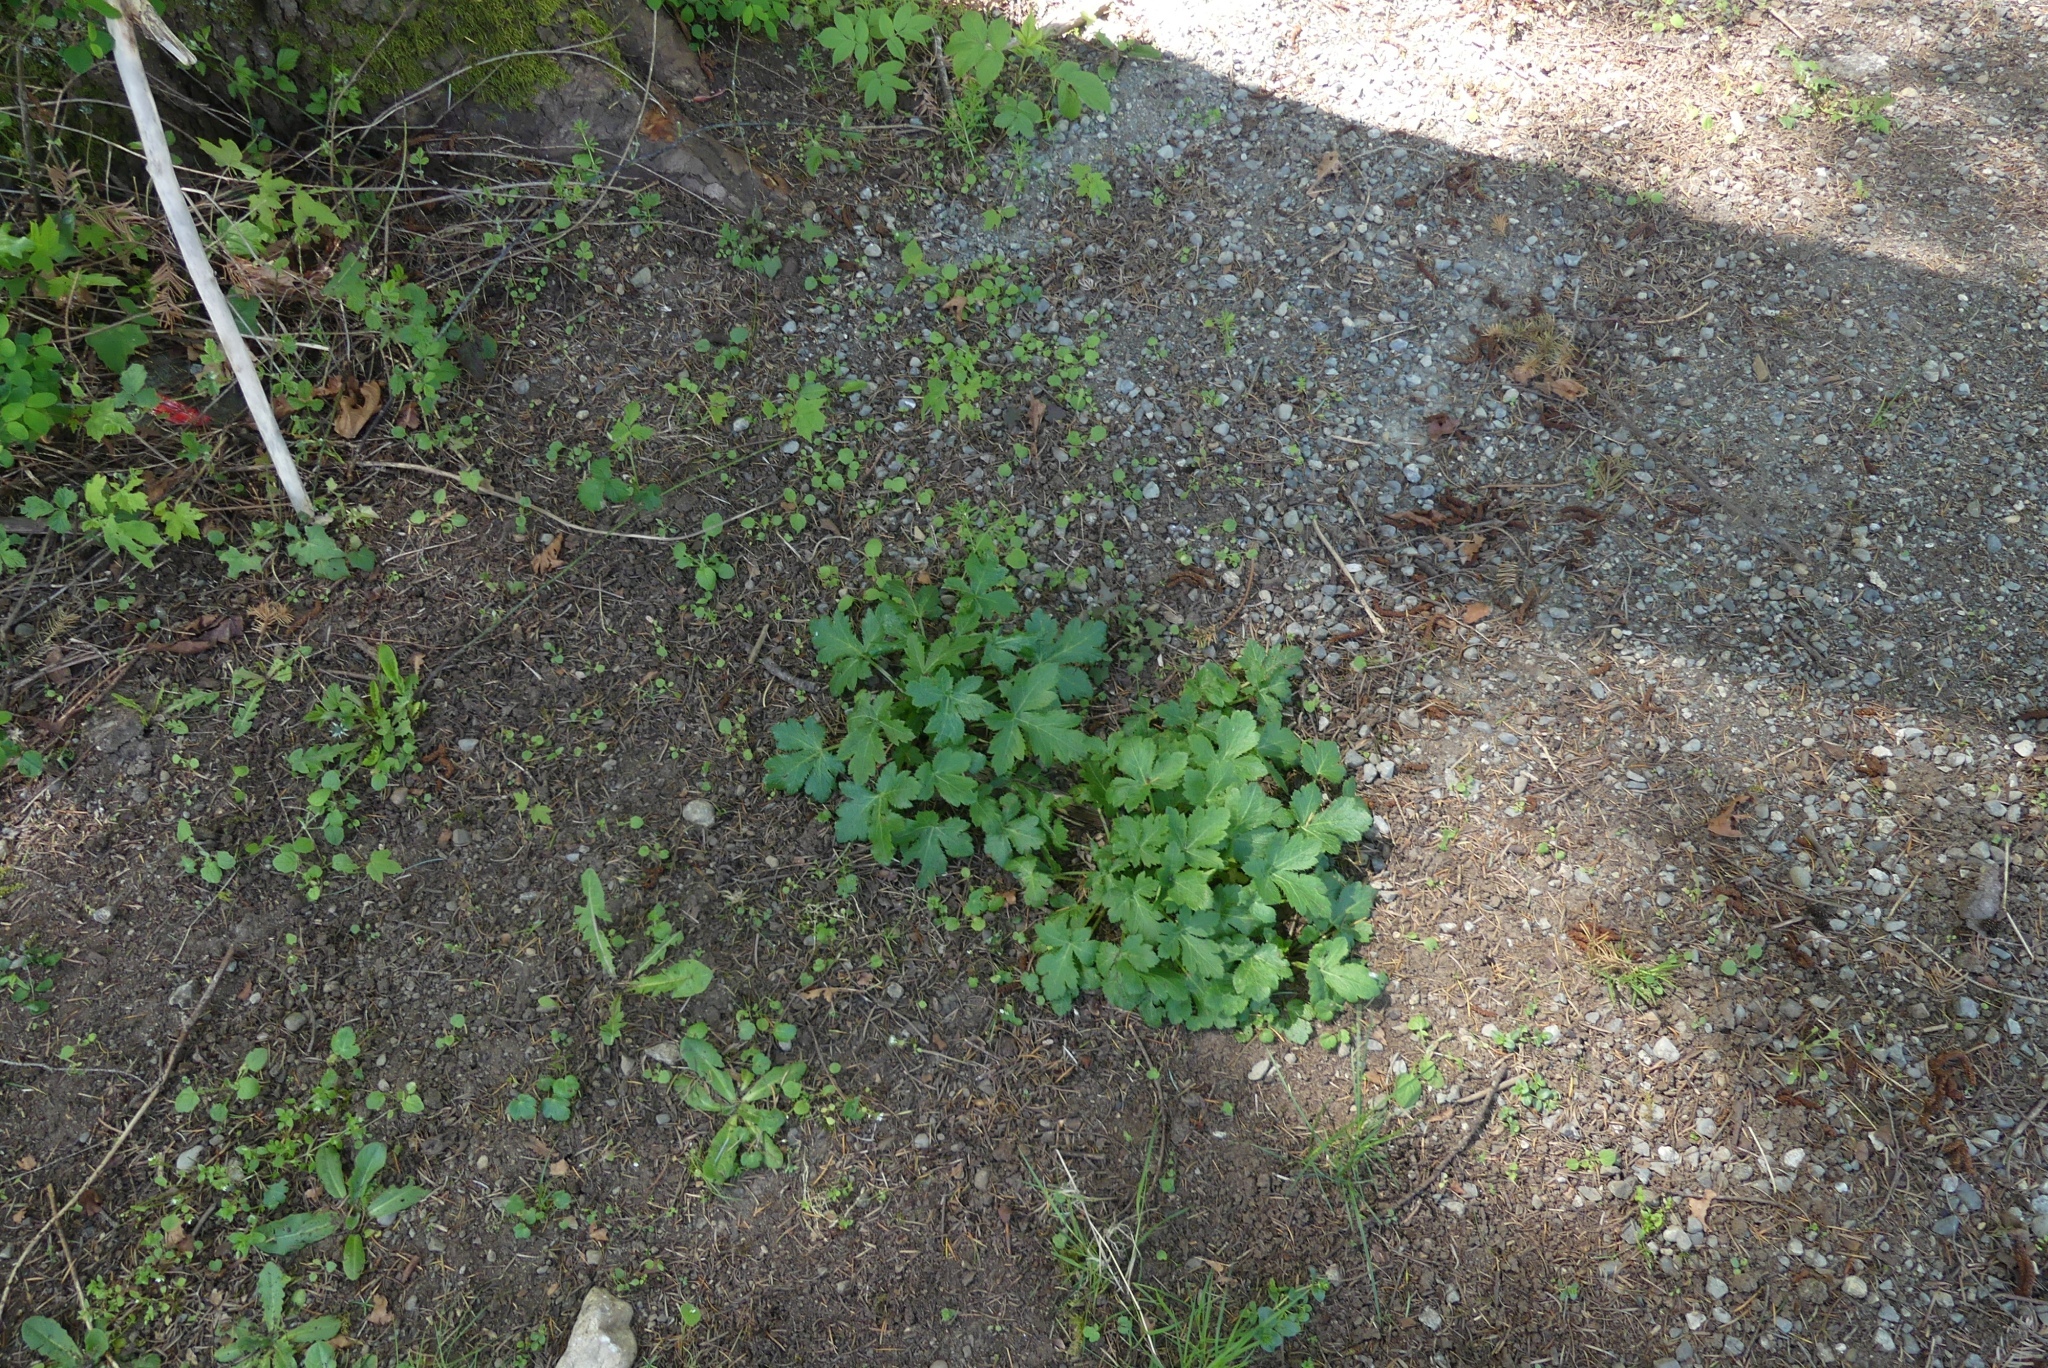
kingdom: Plantae
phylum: Tracheophyta
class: Magnoliopsida
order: Apiales
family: Apiaceae
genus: Sanicula
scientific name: Sanicula crassicaulis
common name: Western snakeroot
